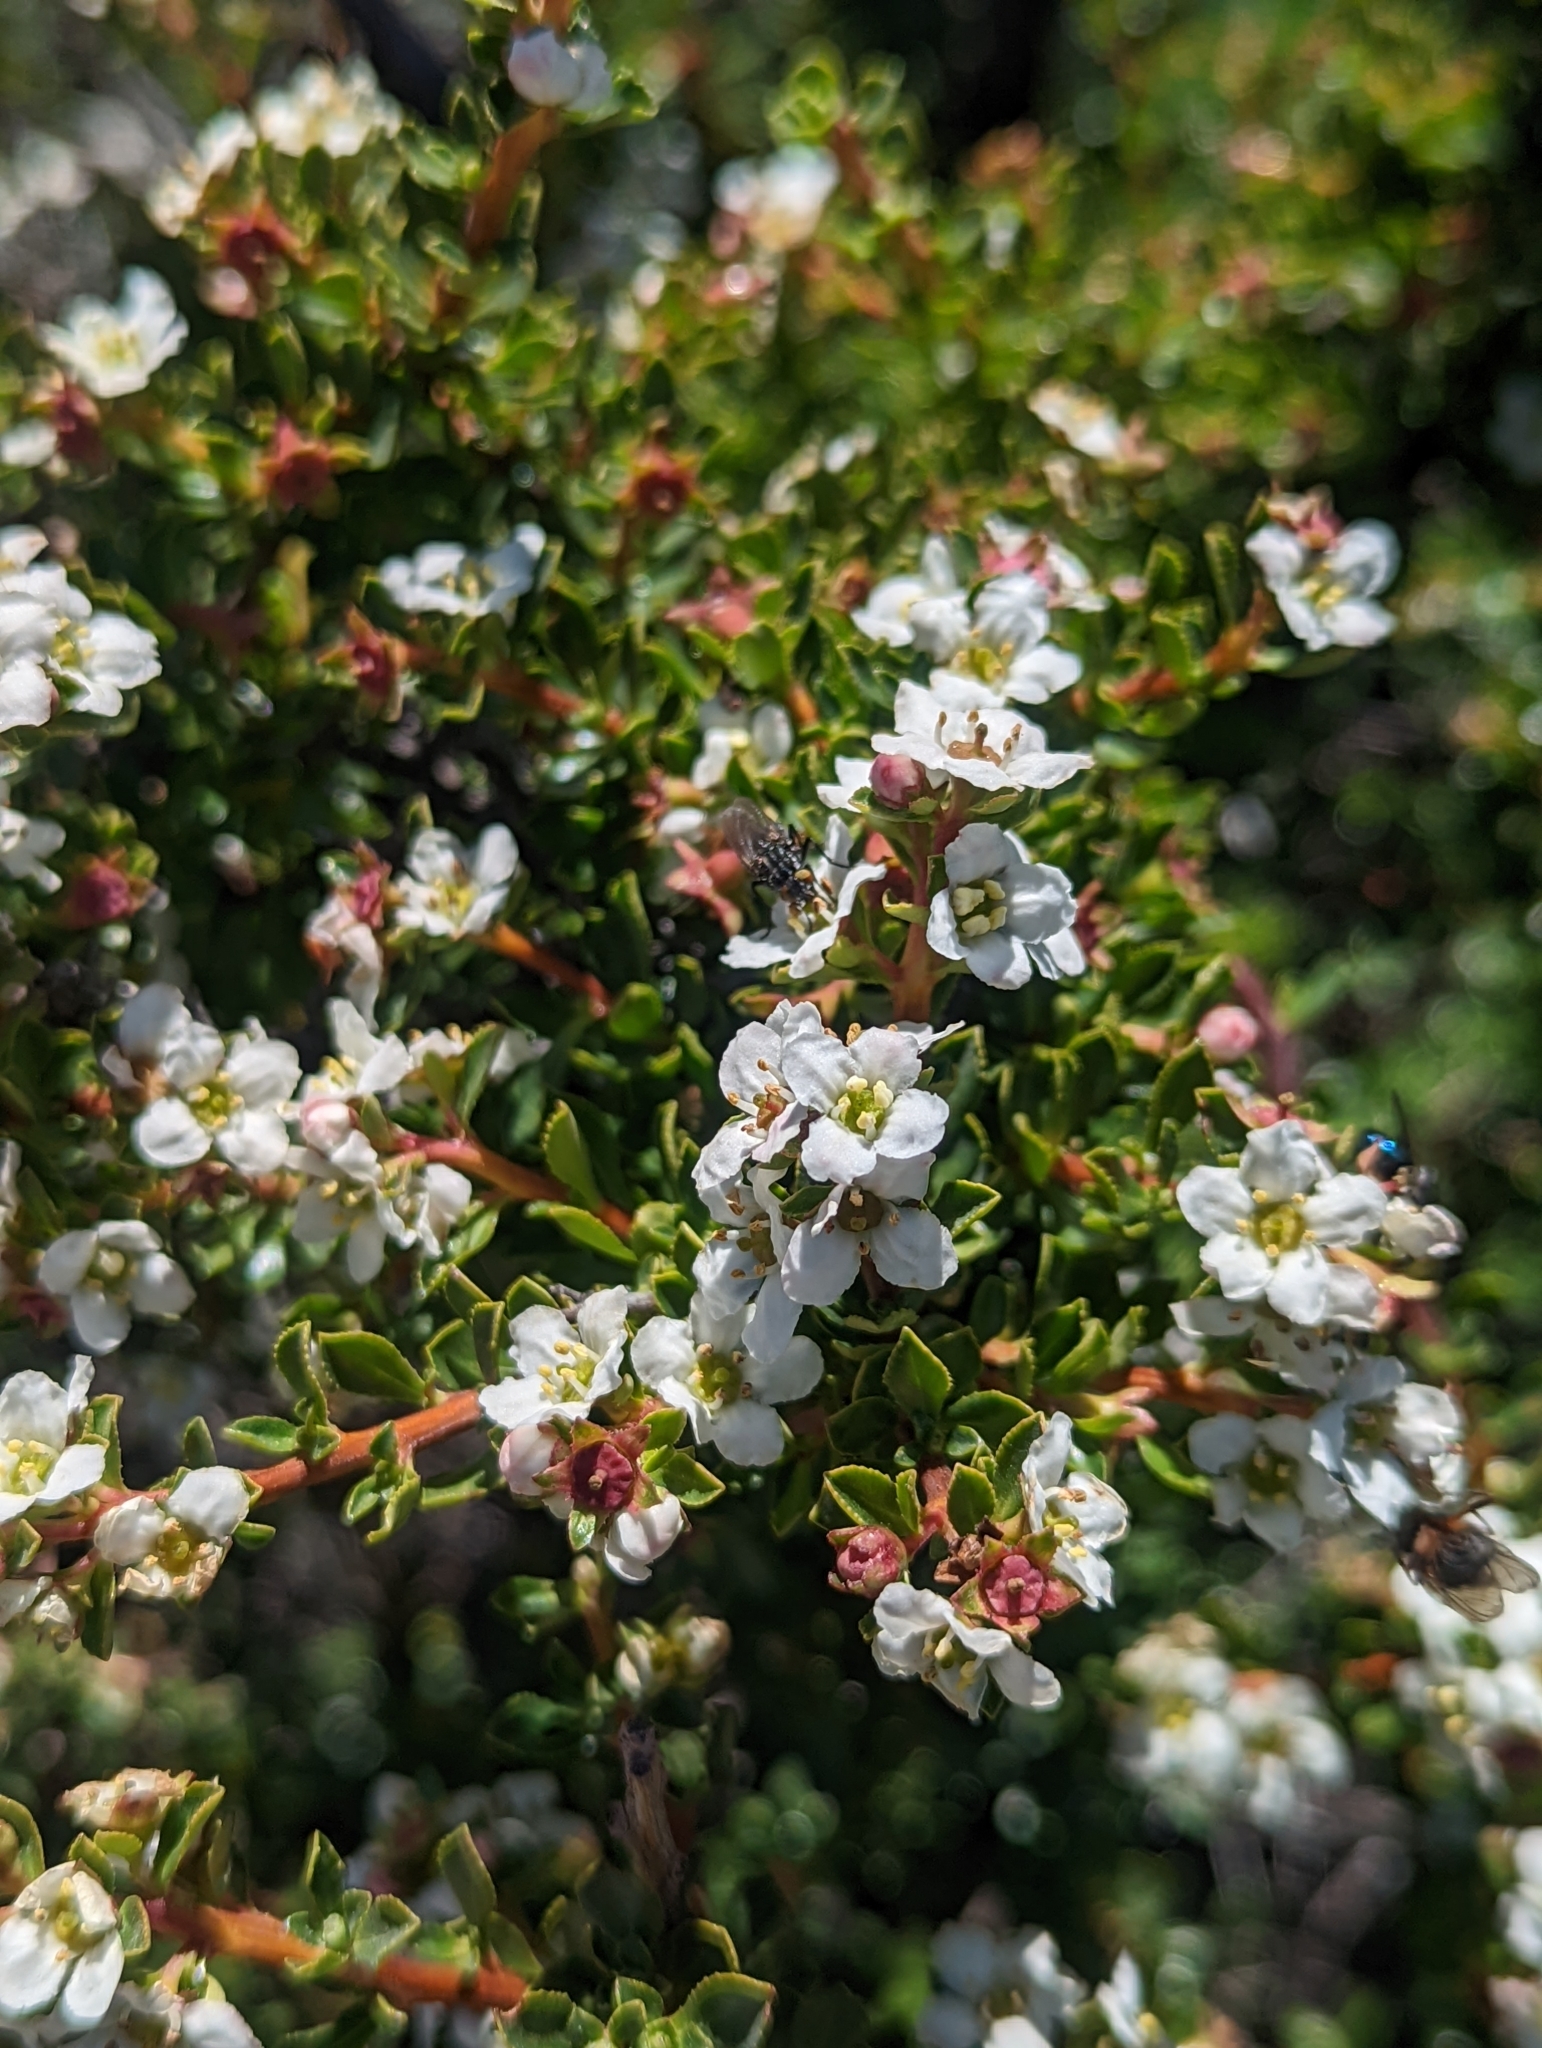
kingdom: Plantae
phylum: Tracheophyta
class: Magnoliopsida
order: Escalloniales
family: Escalloniaceae
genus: Escallonia
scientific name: Escallonia virgata
